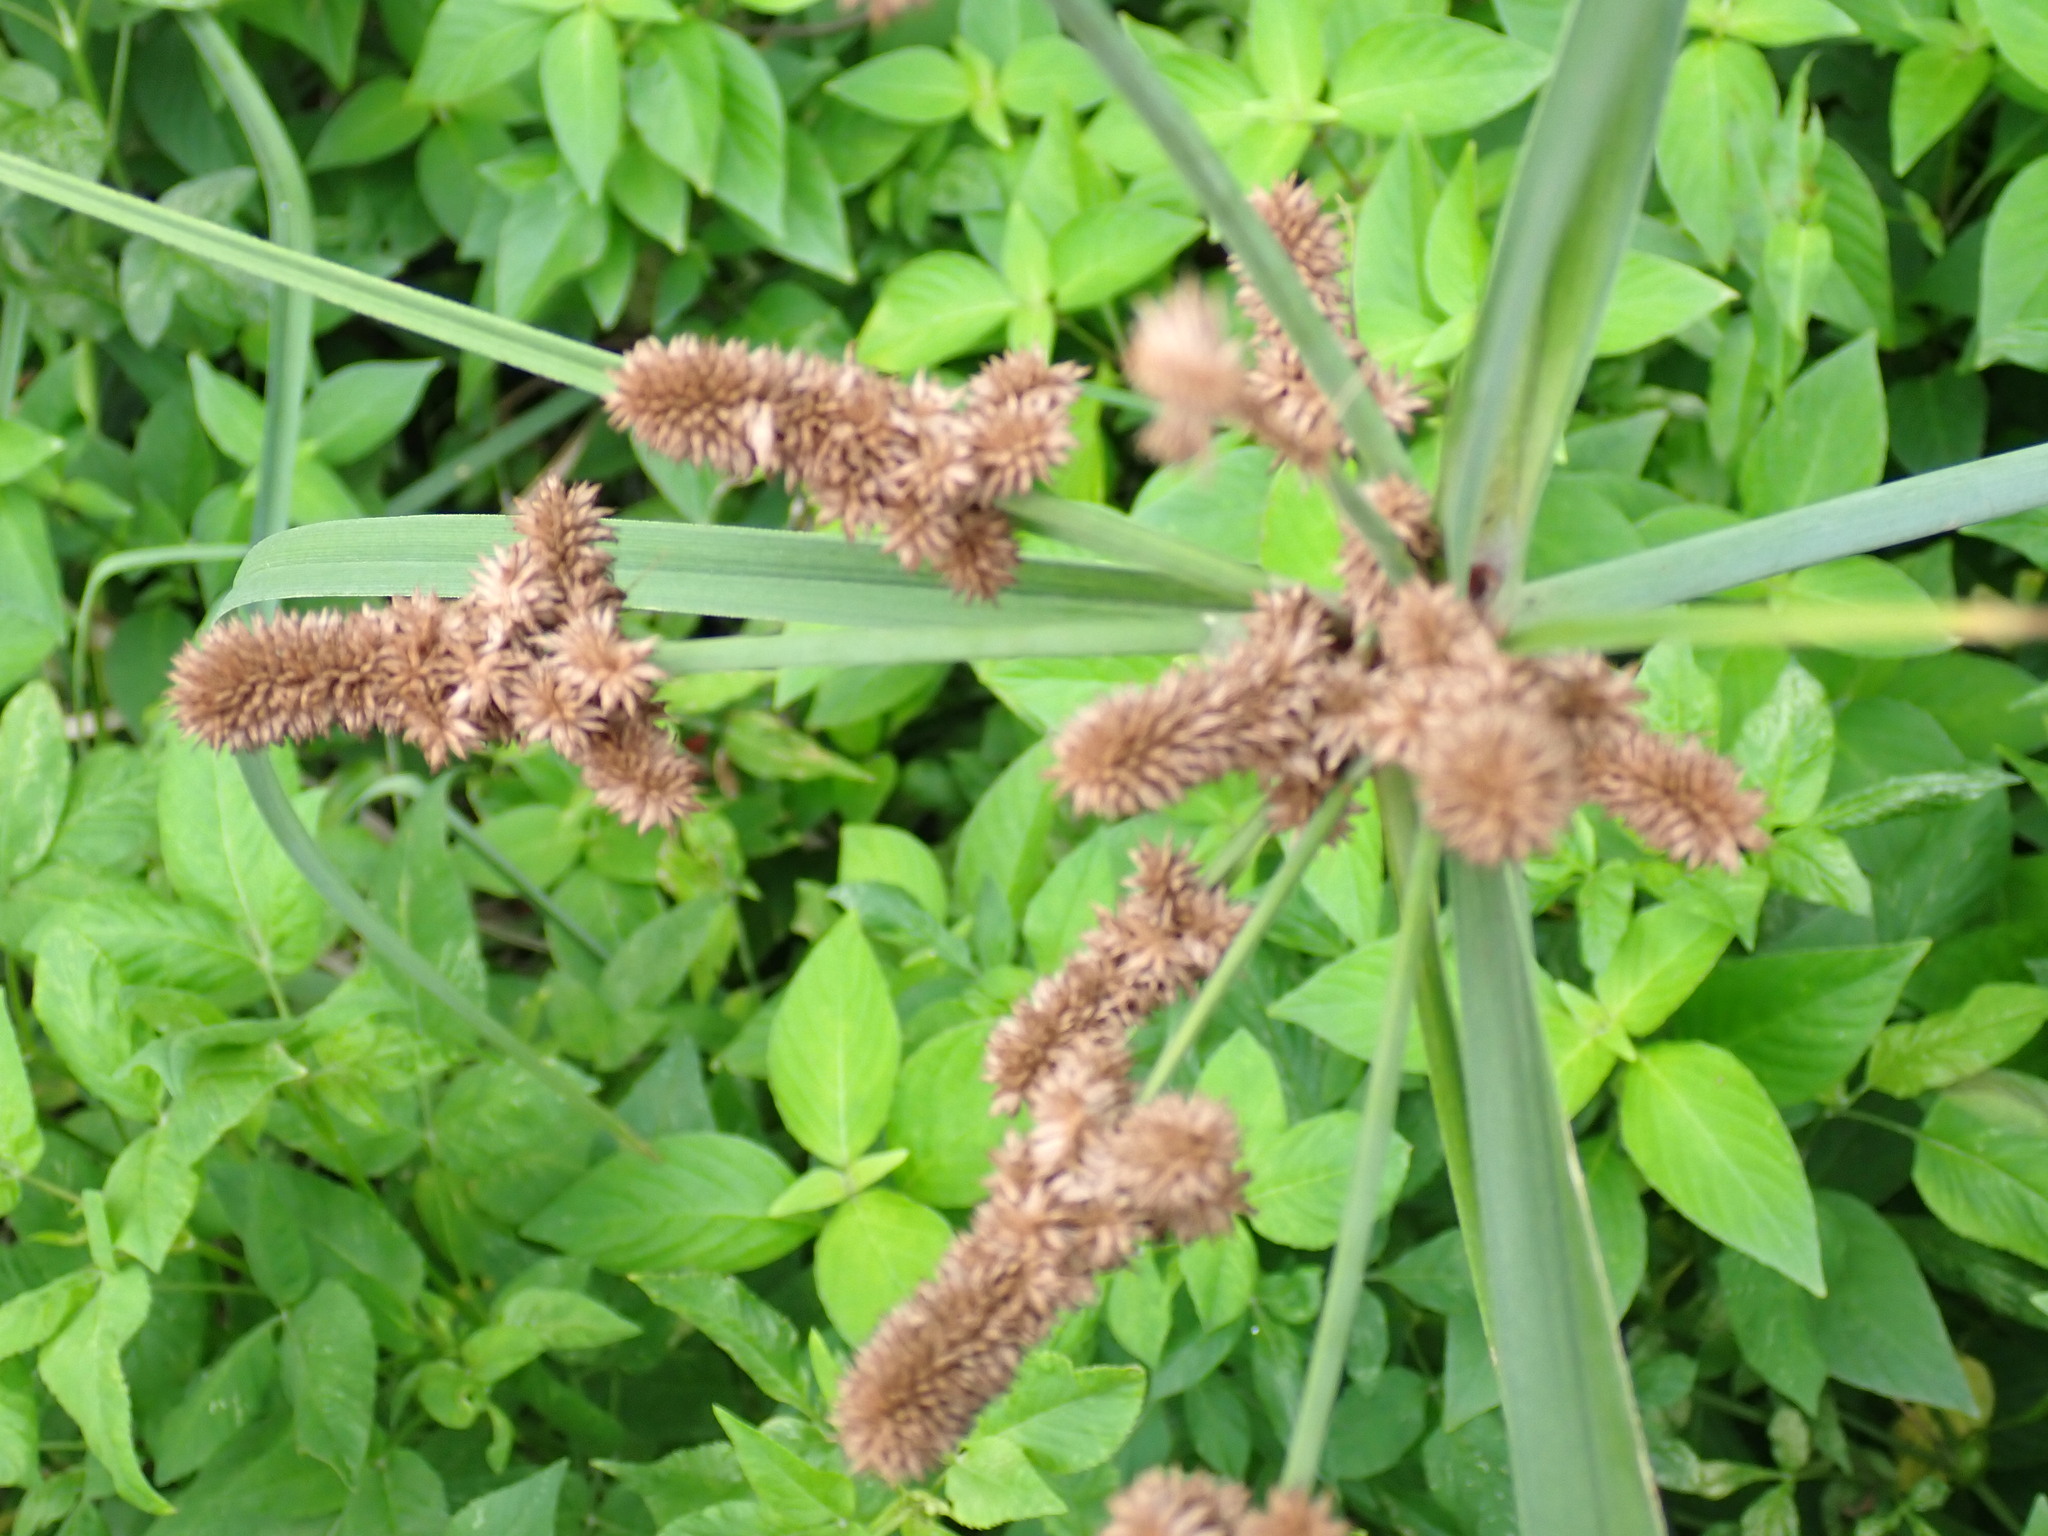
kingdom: Plantae
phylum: Tracheophyta
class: Liliopsida
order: Poales
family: Cyperaceae
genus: Cyperus
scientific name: Cyperus ligularis
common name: Swamp flat sedge
